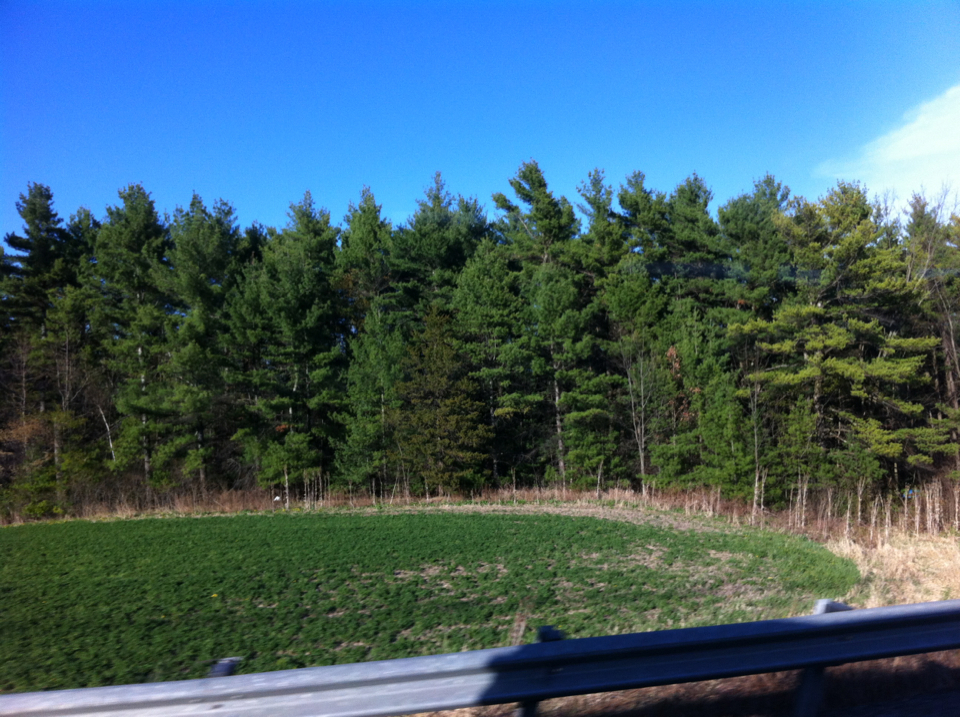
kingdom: Plantae
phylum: Tracheophyta
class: Pinopsida
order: Pinales
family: Pinaceae
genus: Pinus
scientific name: Pinus strobus
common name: Weymouth pine
